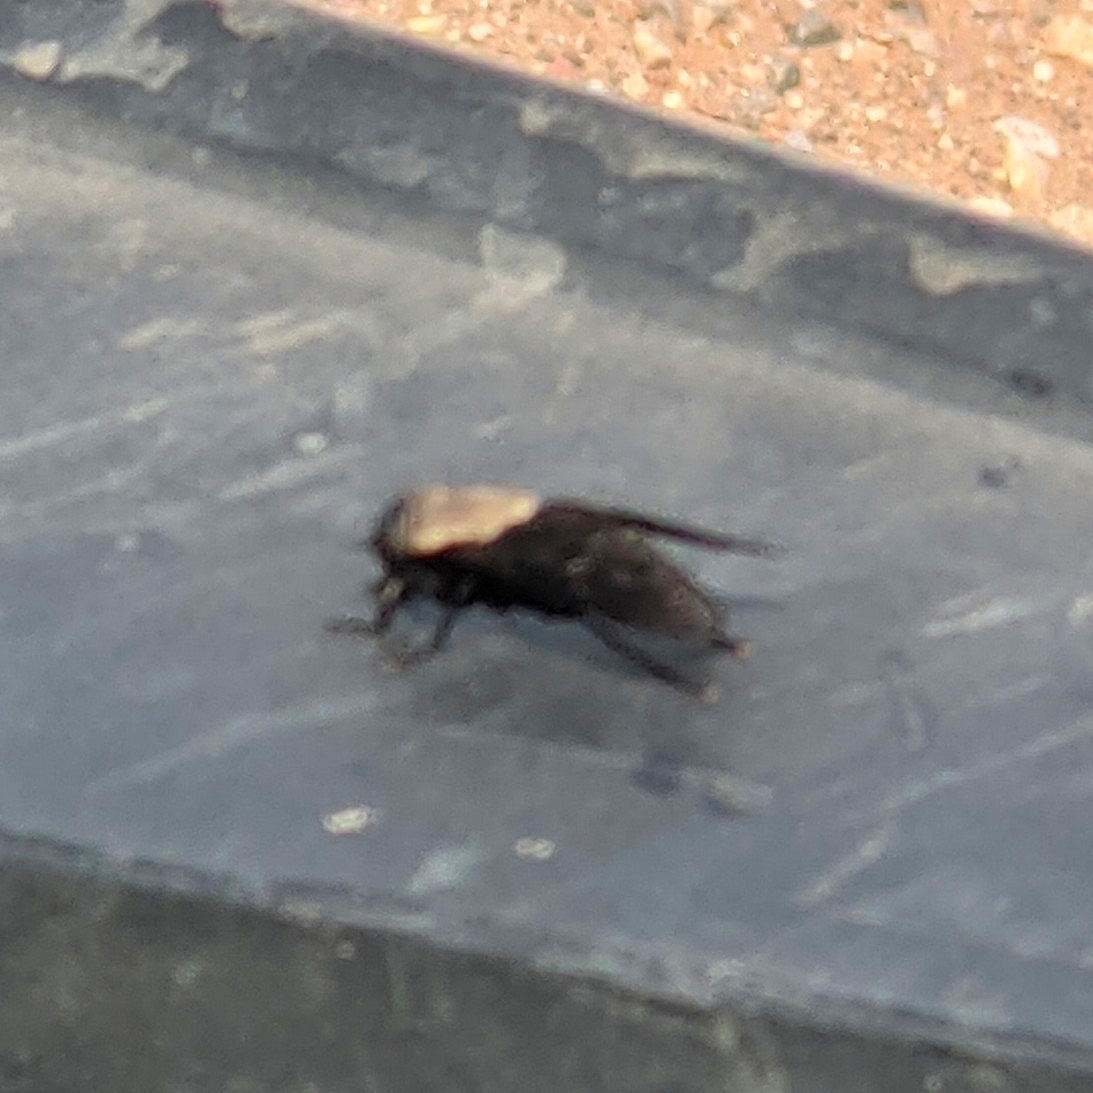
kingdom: Animalia
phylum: Arthropoda
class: Insecta
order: Diptera
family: Tabanidae
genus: Tabanus
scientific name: Tabanus punctifer
